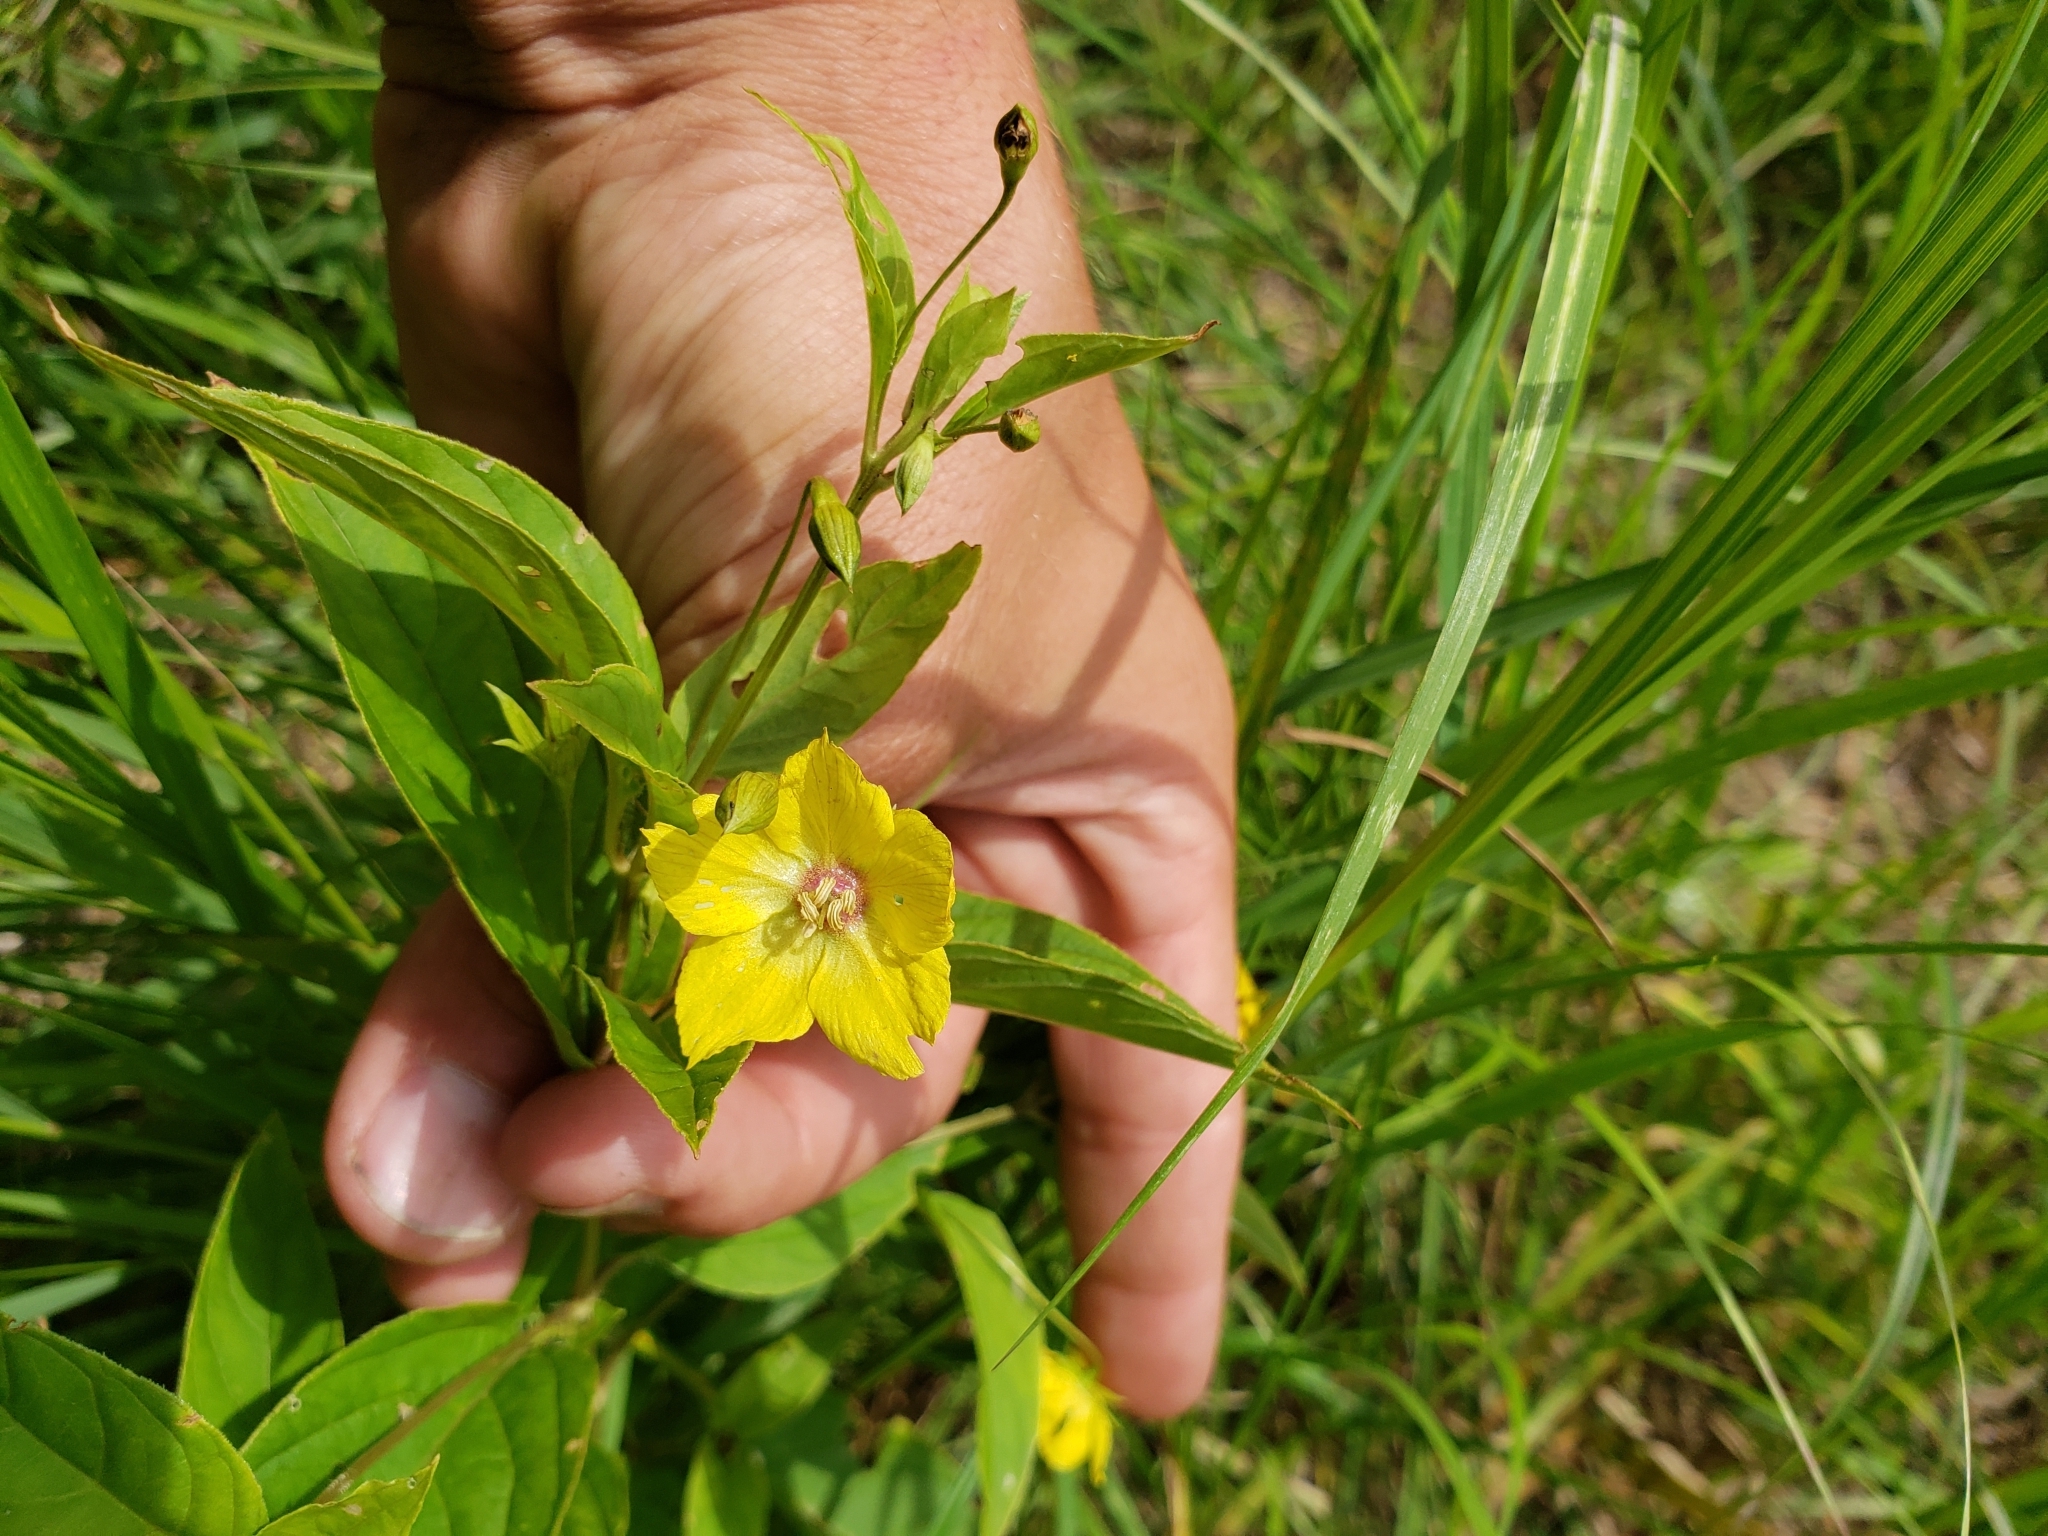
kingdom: Plantae
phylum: Tracheophyta
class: Magnoliopsida
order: Ericales
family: Primulaceae
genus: Lysimachia
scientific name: Lysimachia ciliata
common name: Fringed loosestrife
